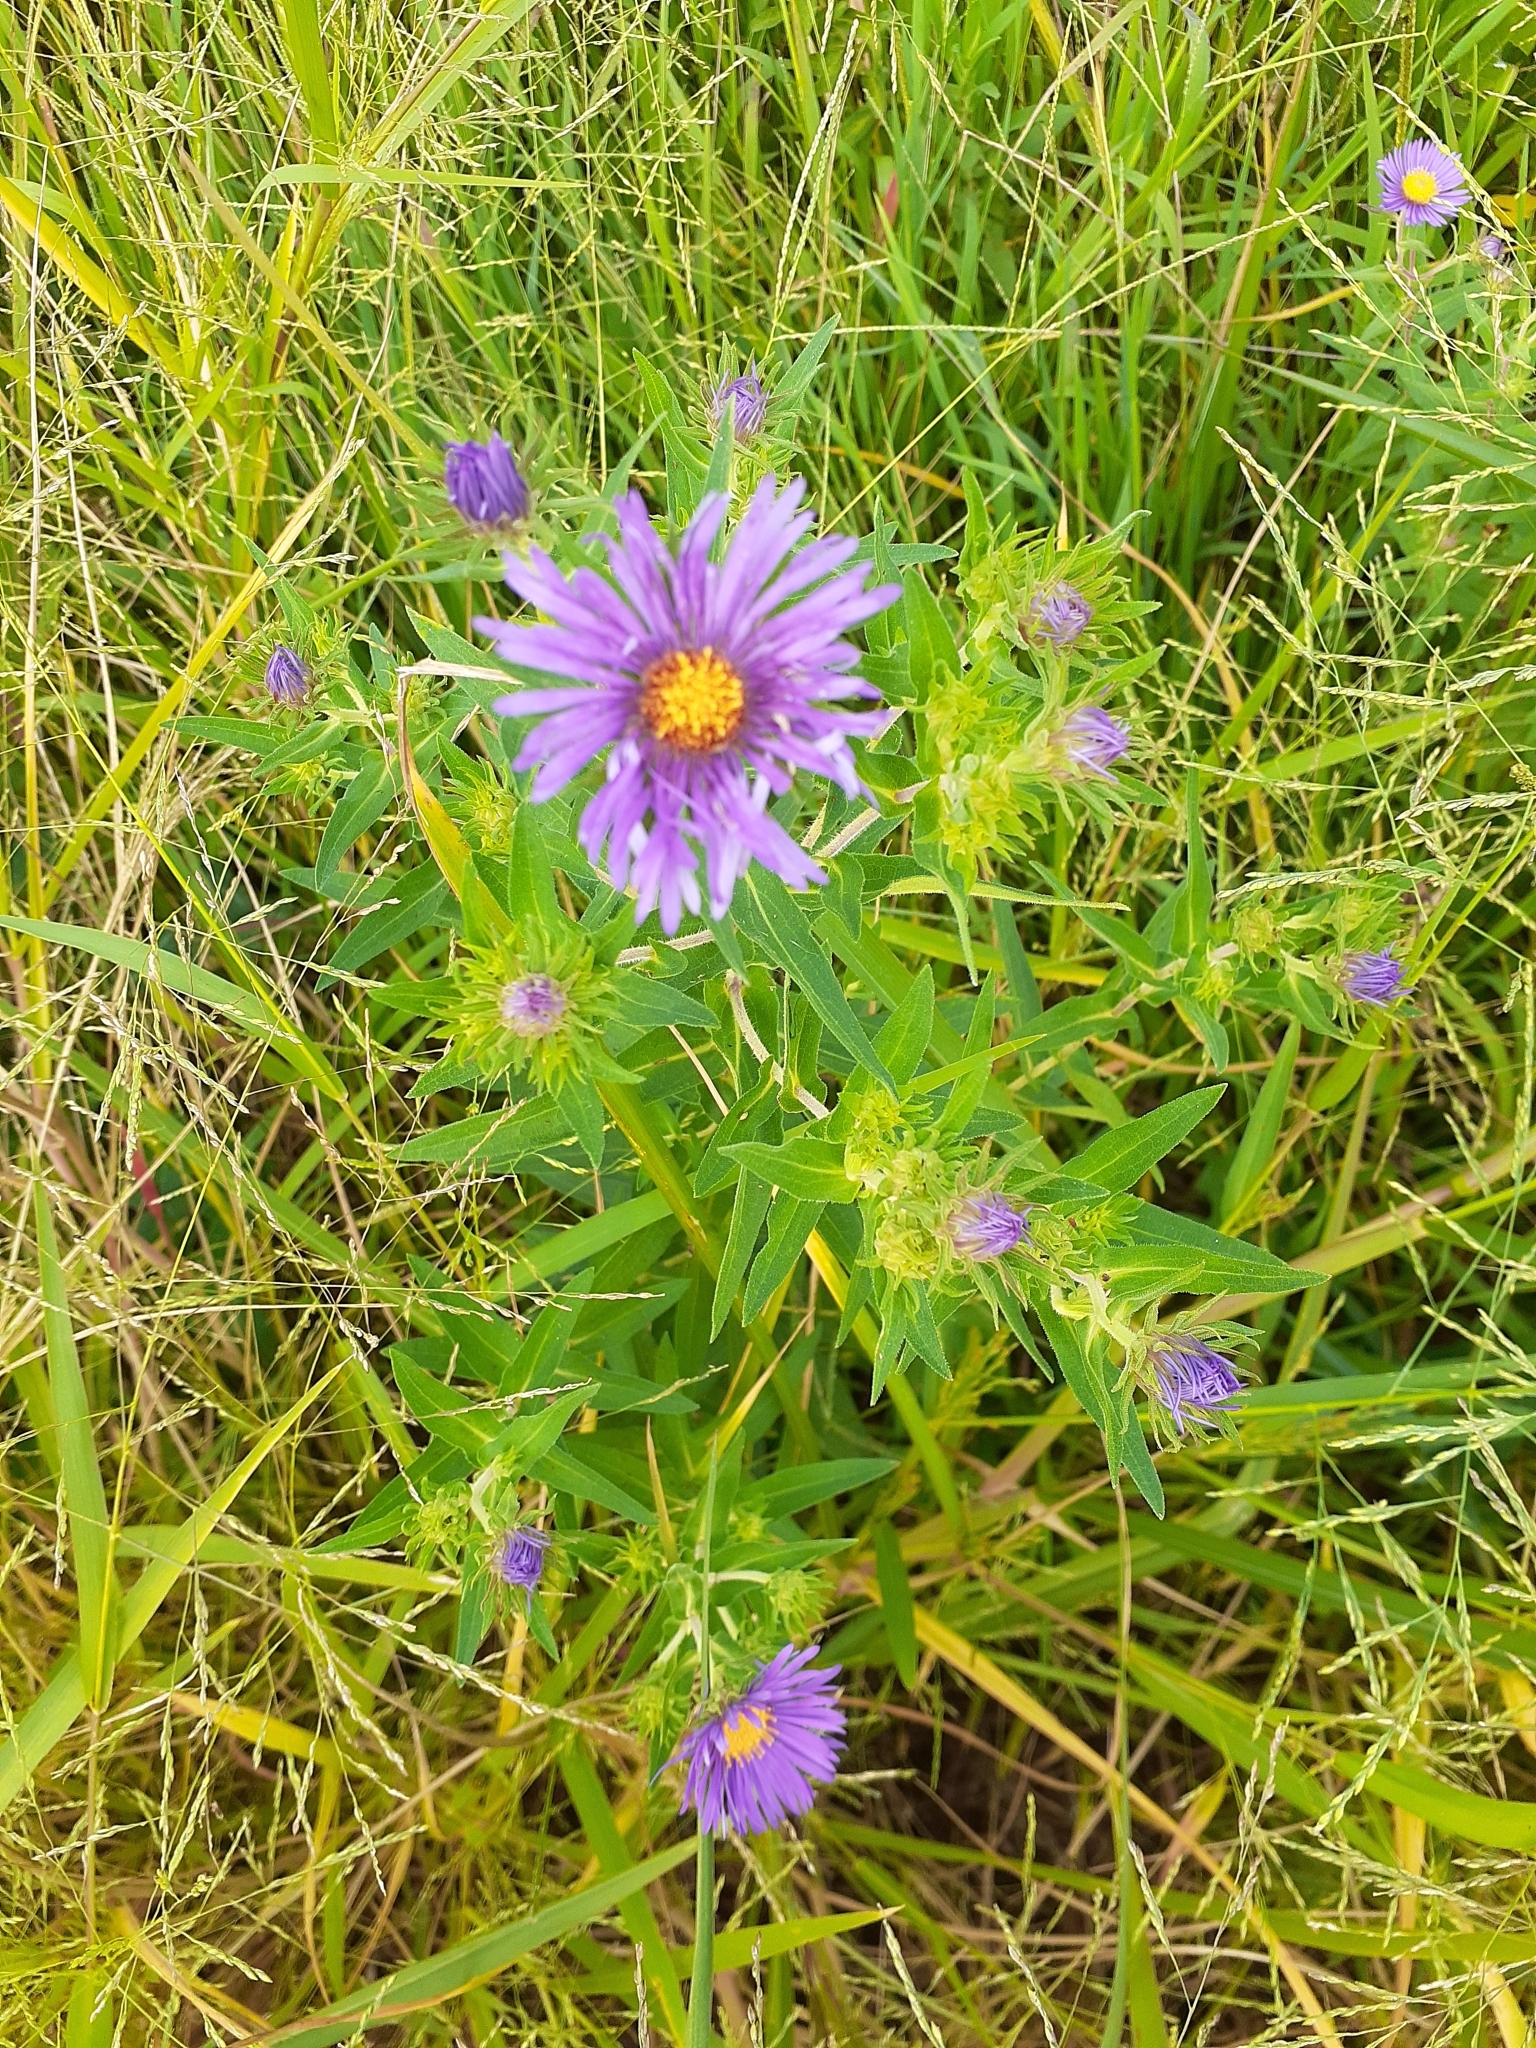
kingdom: Plantae
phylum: Tracheophyta
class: Magnoliopsida
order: Asterales
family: Asteraceae
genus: Symphyotrichum
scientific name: Symphyotrichum novae-angliae
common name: Michaelmas daisy
